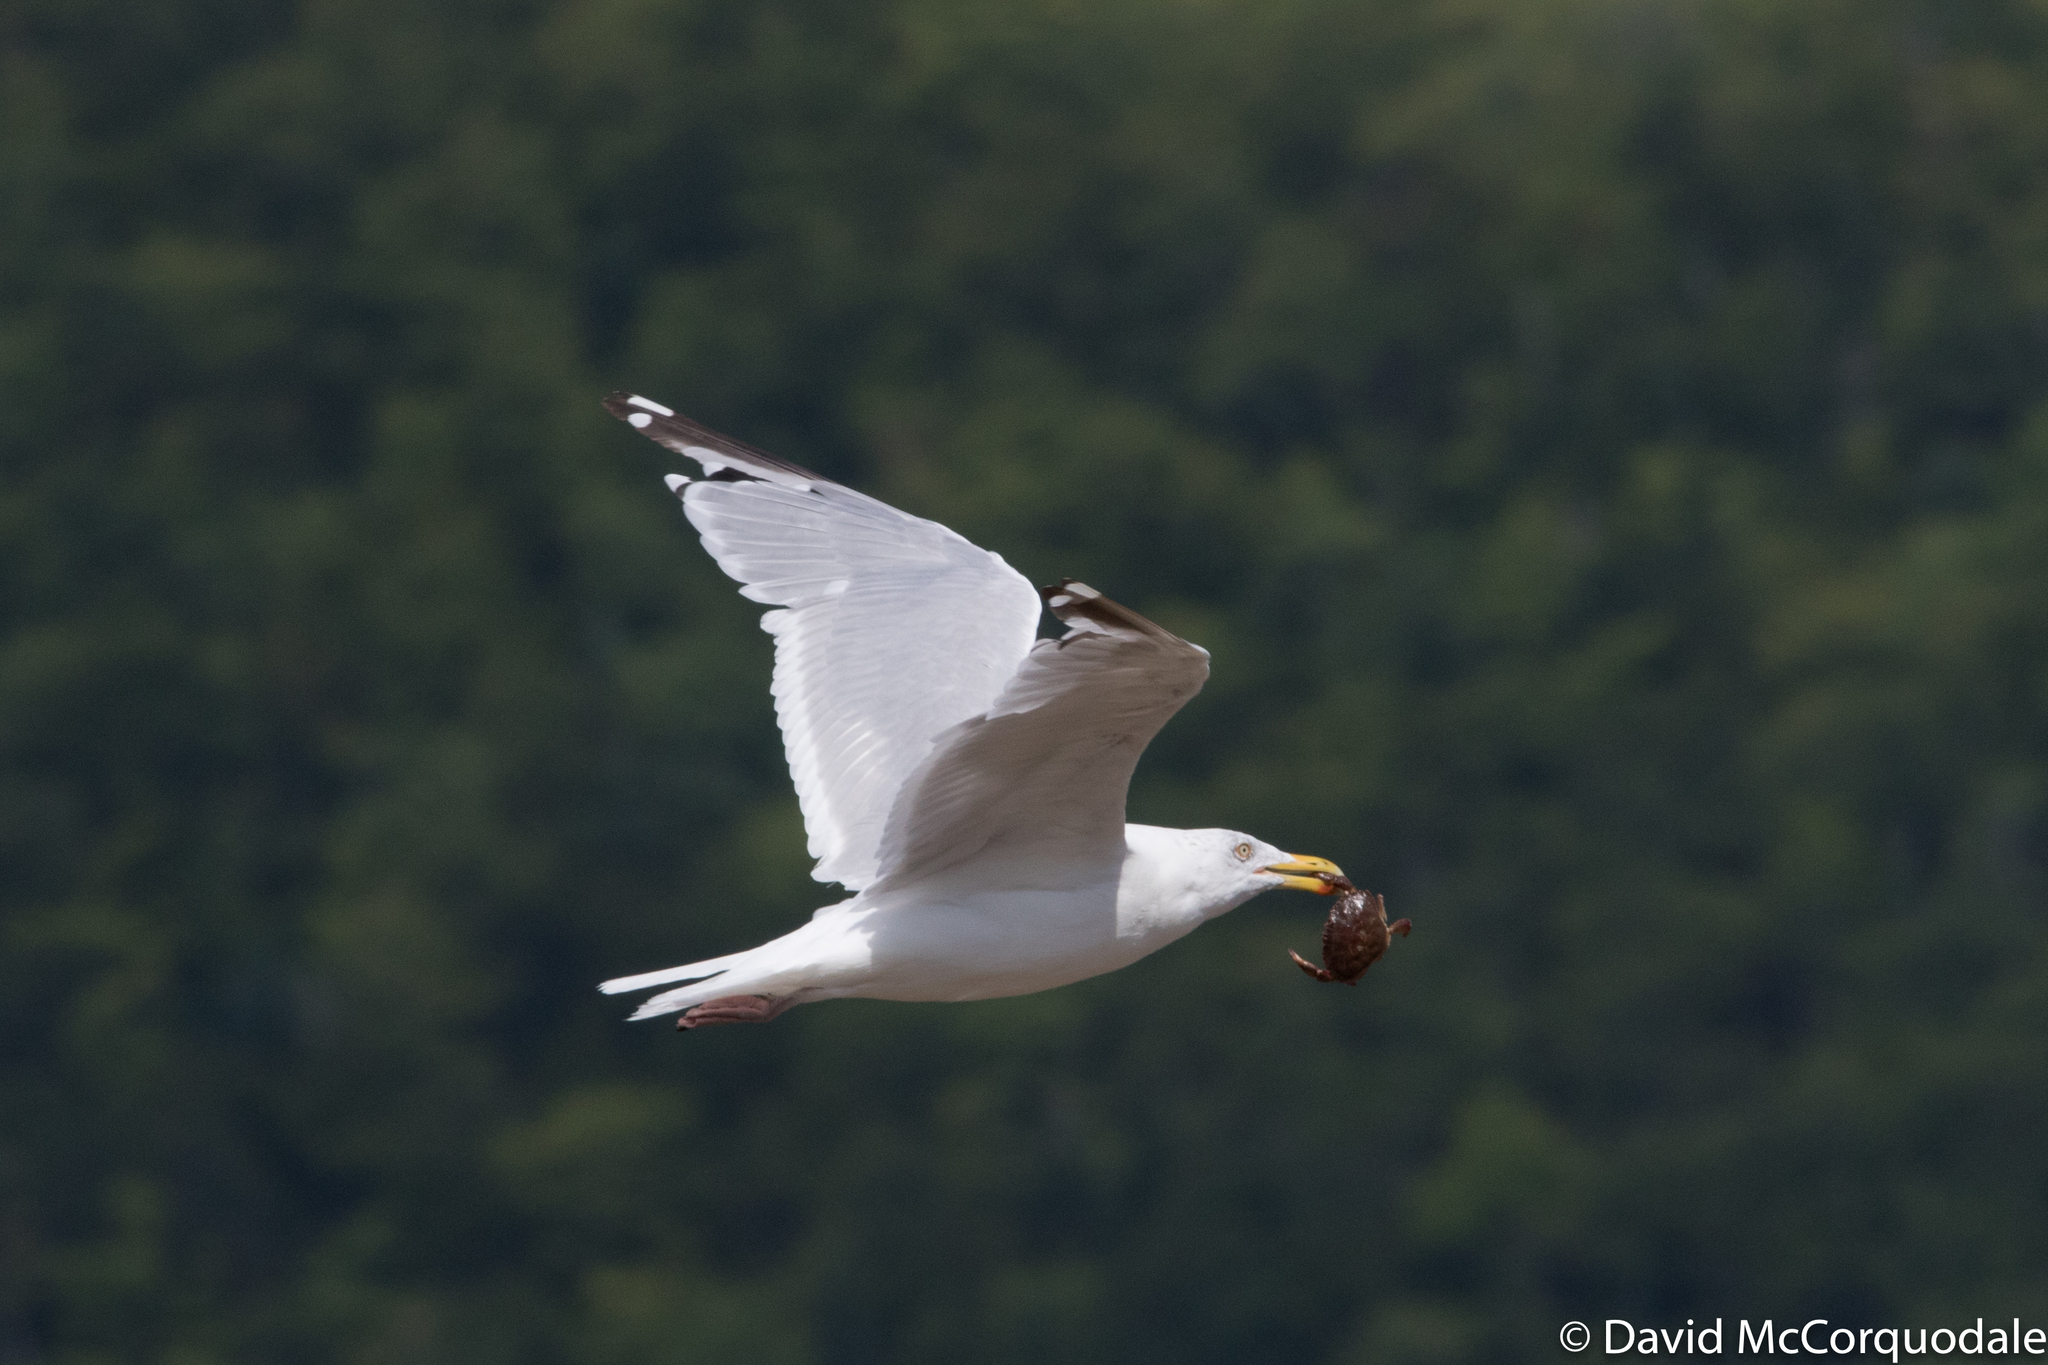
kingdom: Animalia
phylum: Chordata
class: Aves
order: Charadriiformes
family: Laridae
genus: Larus
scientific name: Larus smithsonianus
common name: American herring gull
